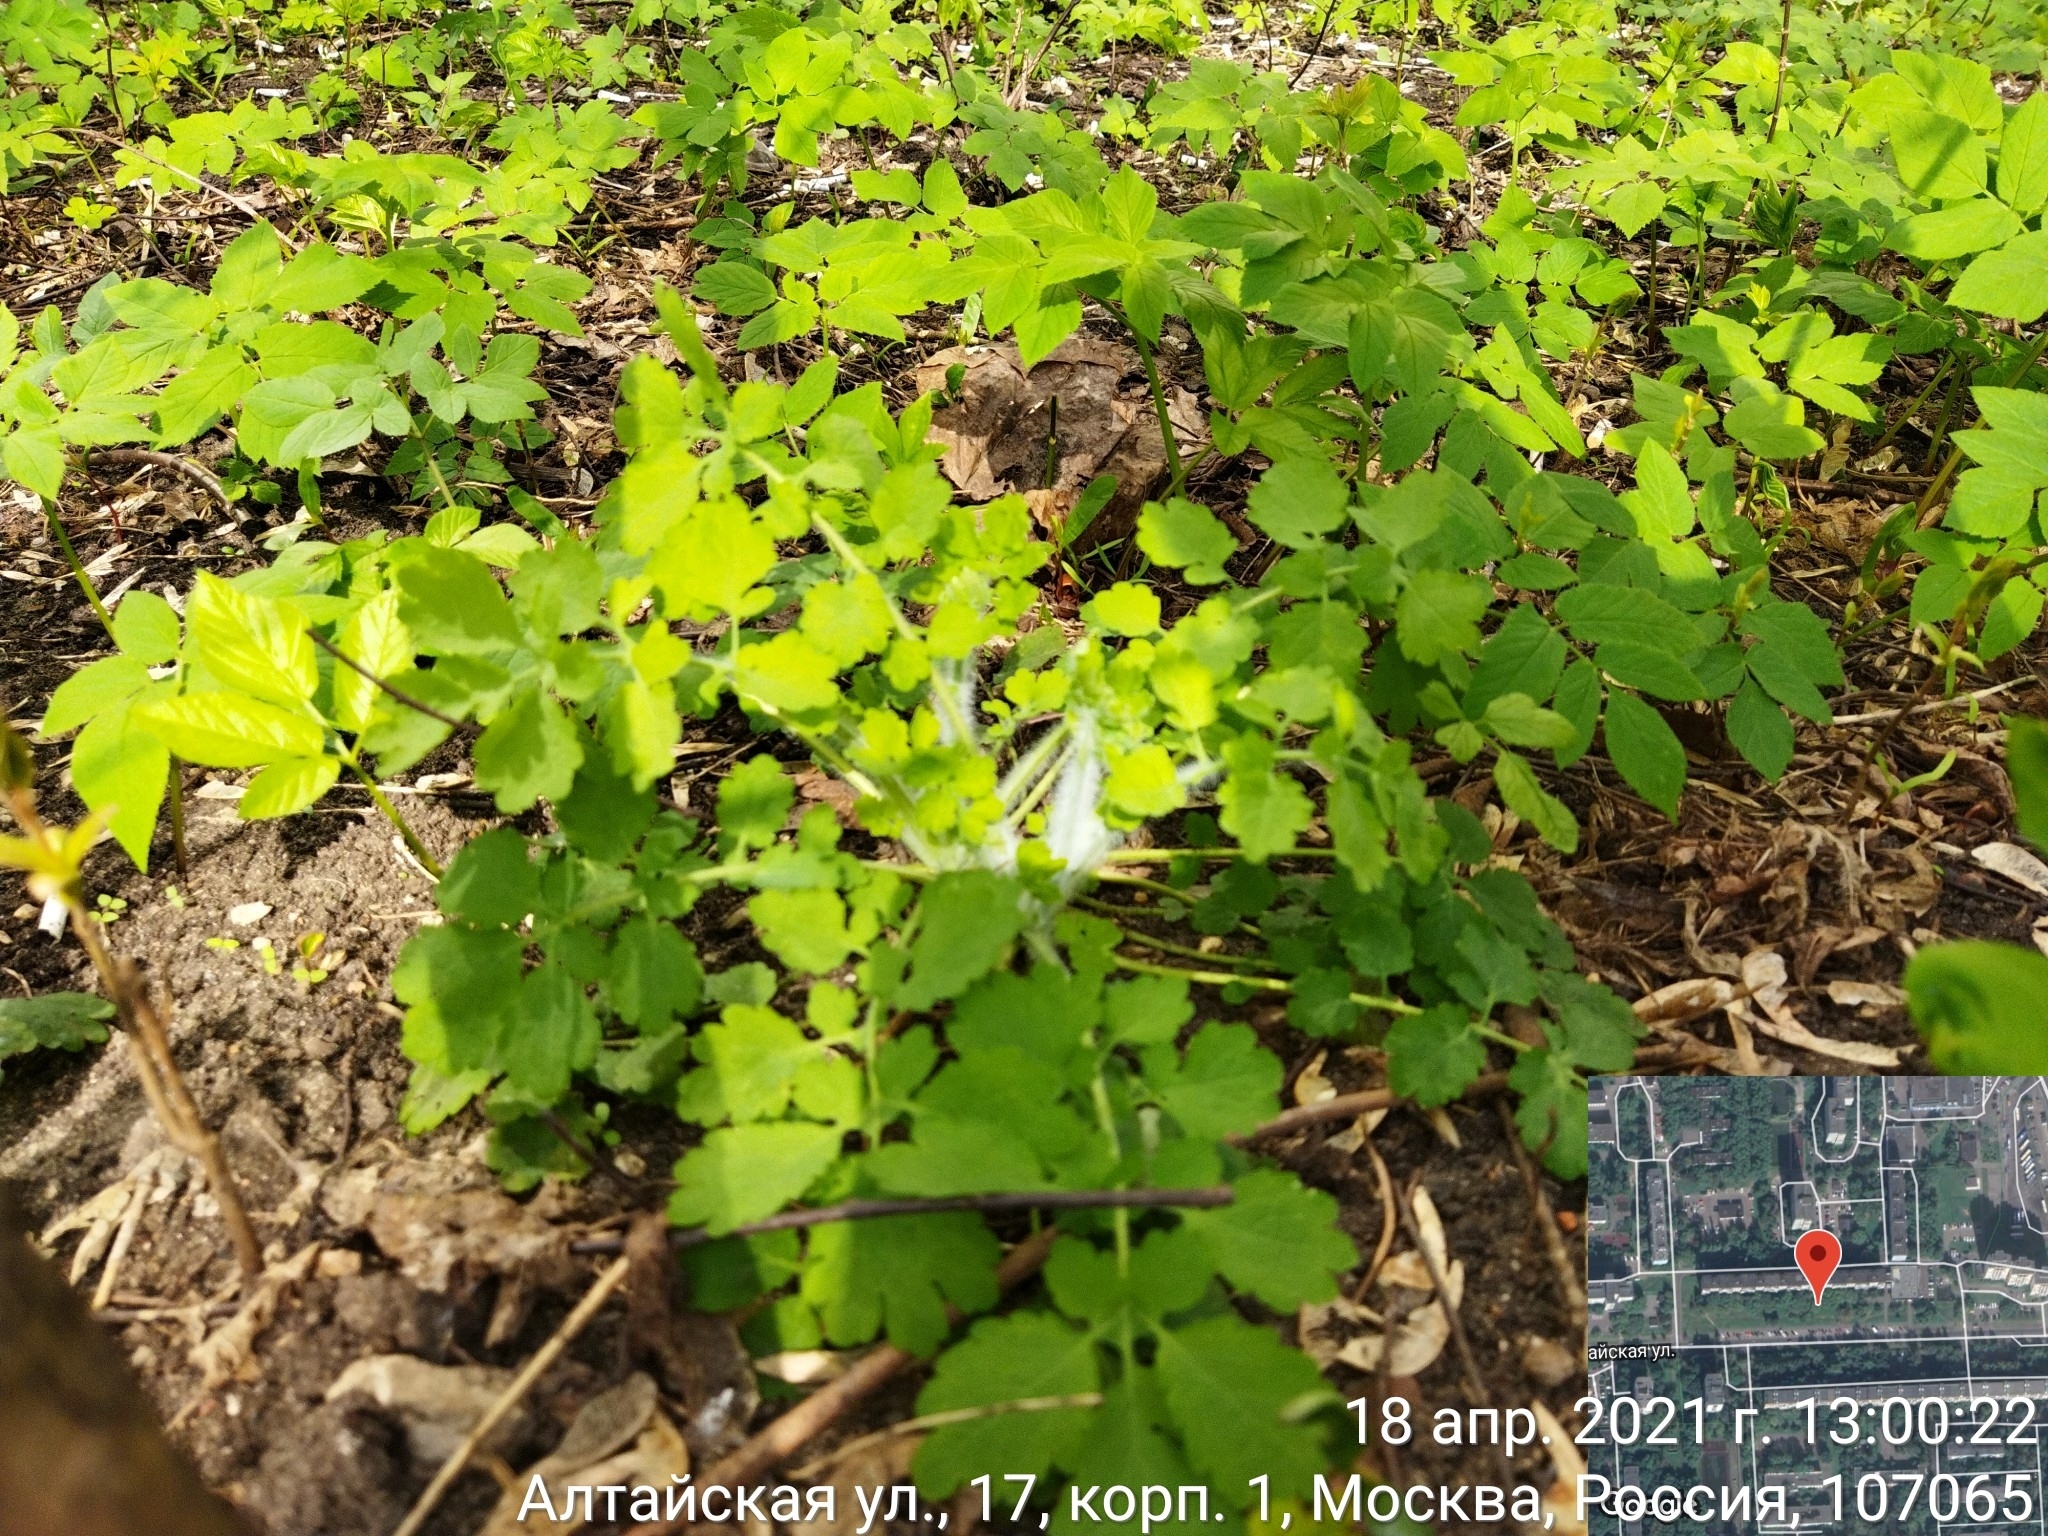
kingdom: Plantae
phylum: Tracheophyta
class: Magnoliopsida
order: Ranunculales
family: Papaveraceae
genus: Chelidonium
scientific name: Chelidonium majus
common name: Greater celandine
